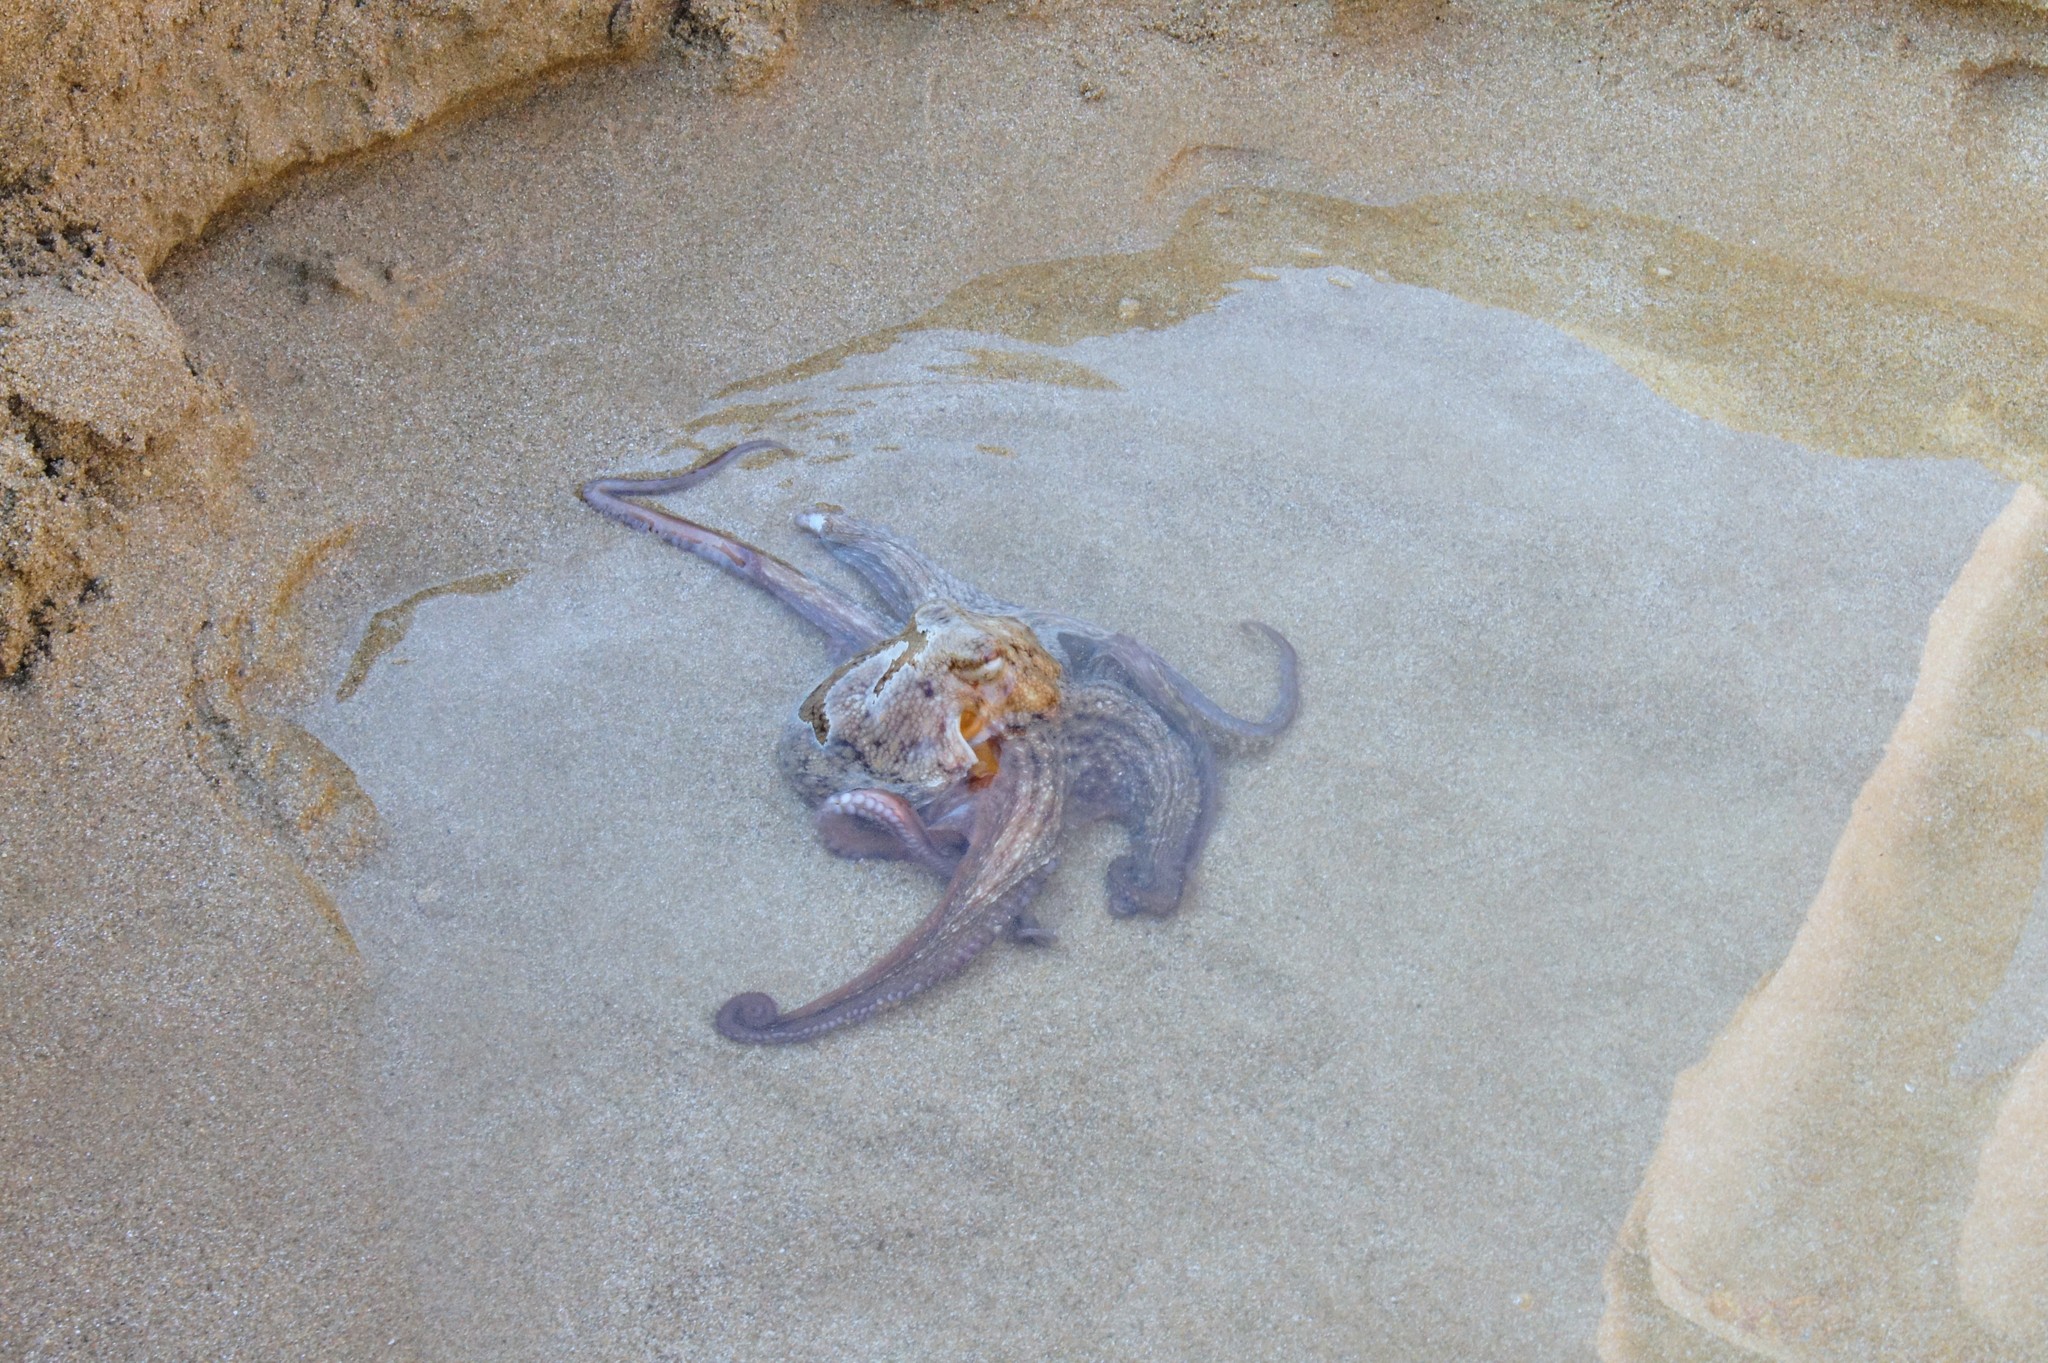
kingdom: Animalia
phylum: Mollusca
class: Cephalopoda
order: Octopoda
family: Octopodidae
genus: Octopus
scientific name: Octopus vulgaris
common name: Common octopus
